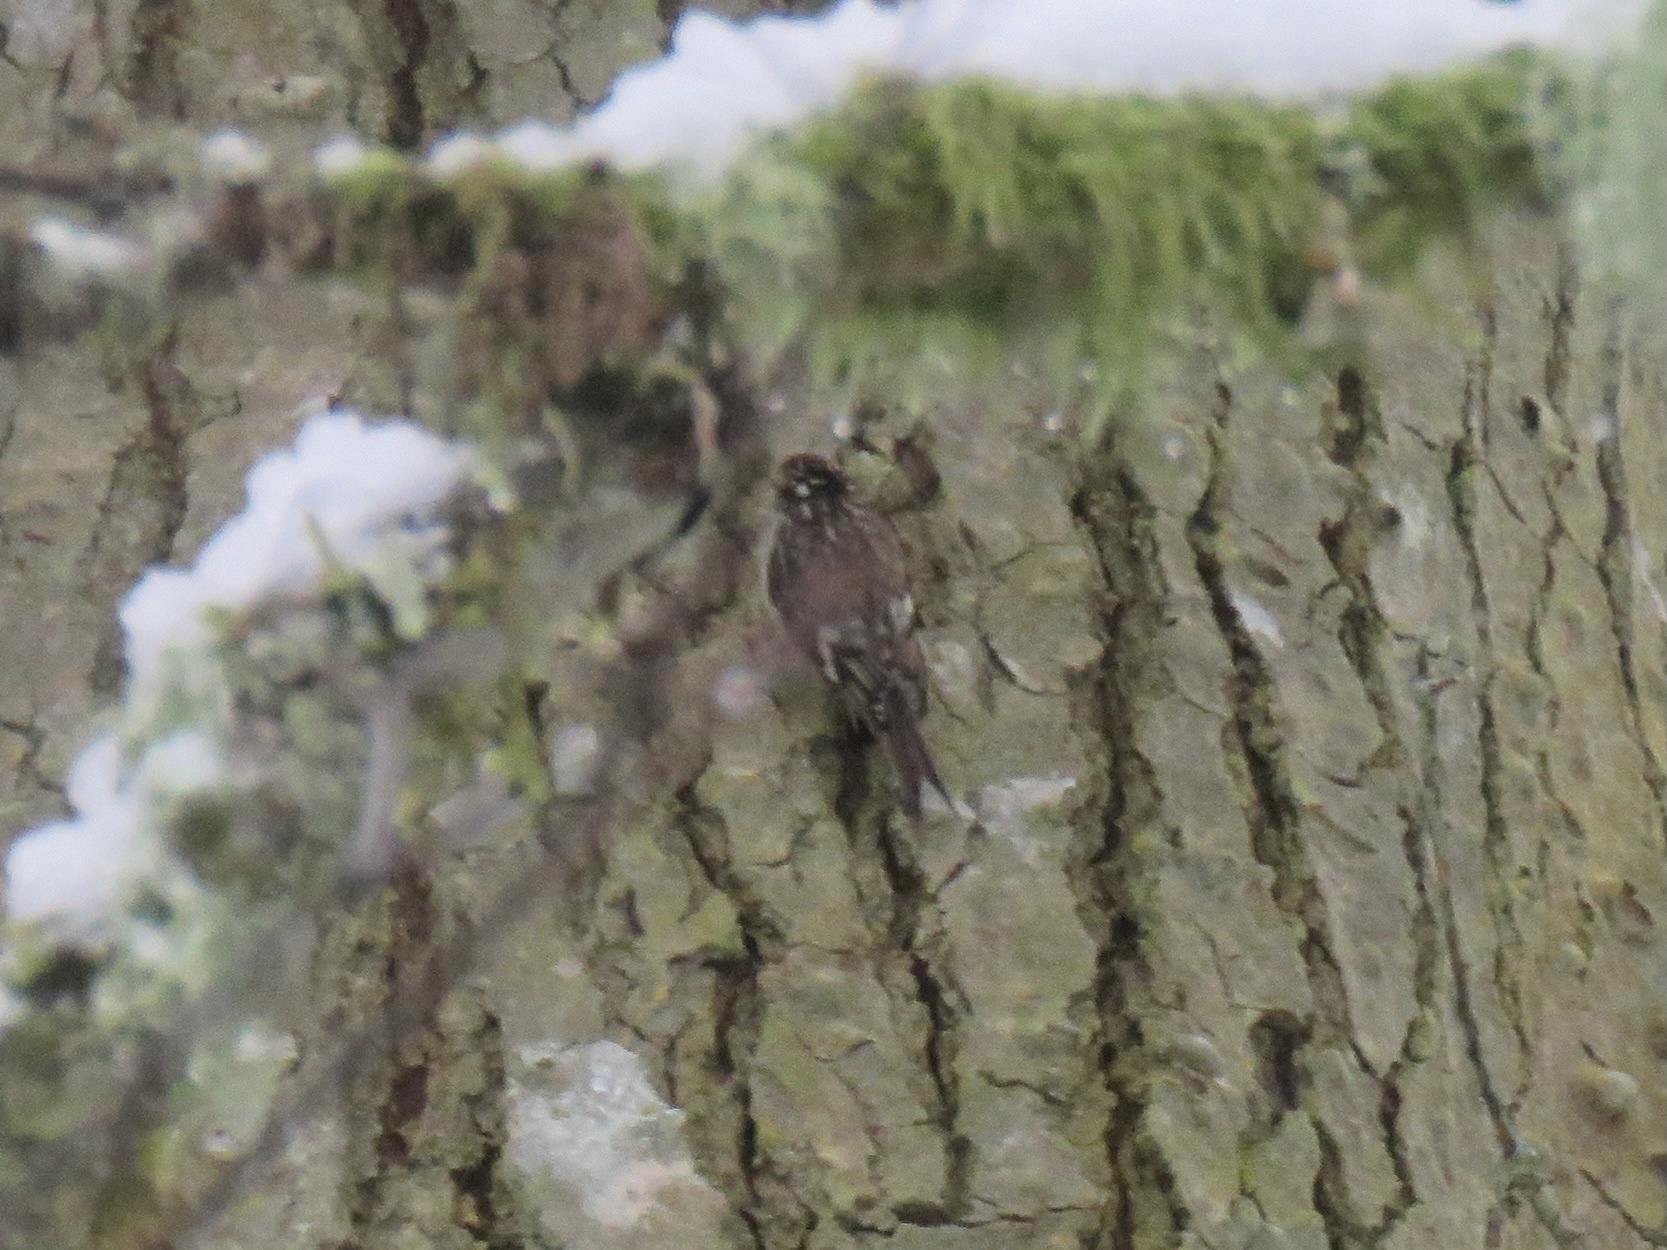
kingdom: Animalia
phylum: Chordata
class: Aves
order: Passeriformes
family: Certhiidae
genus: Certhia
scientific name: Certhia americana
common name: Brown creeper
